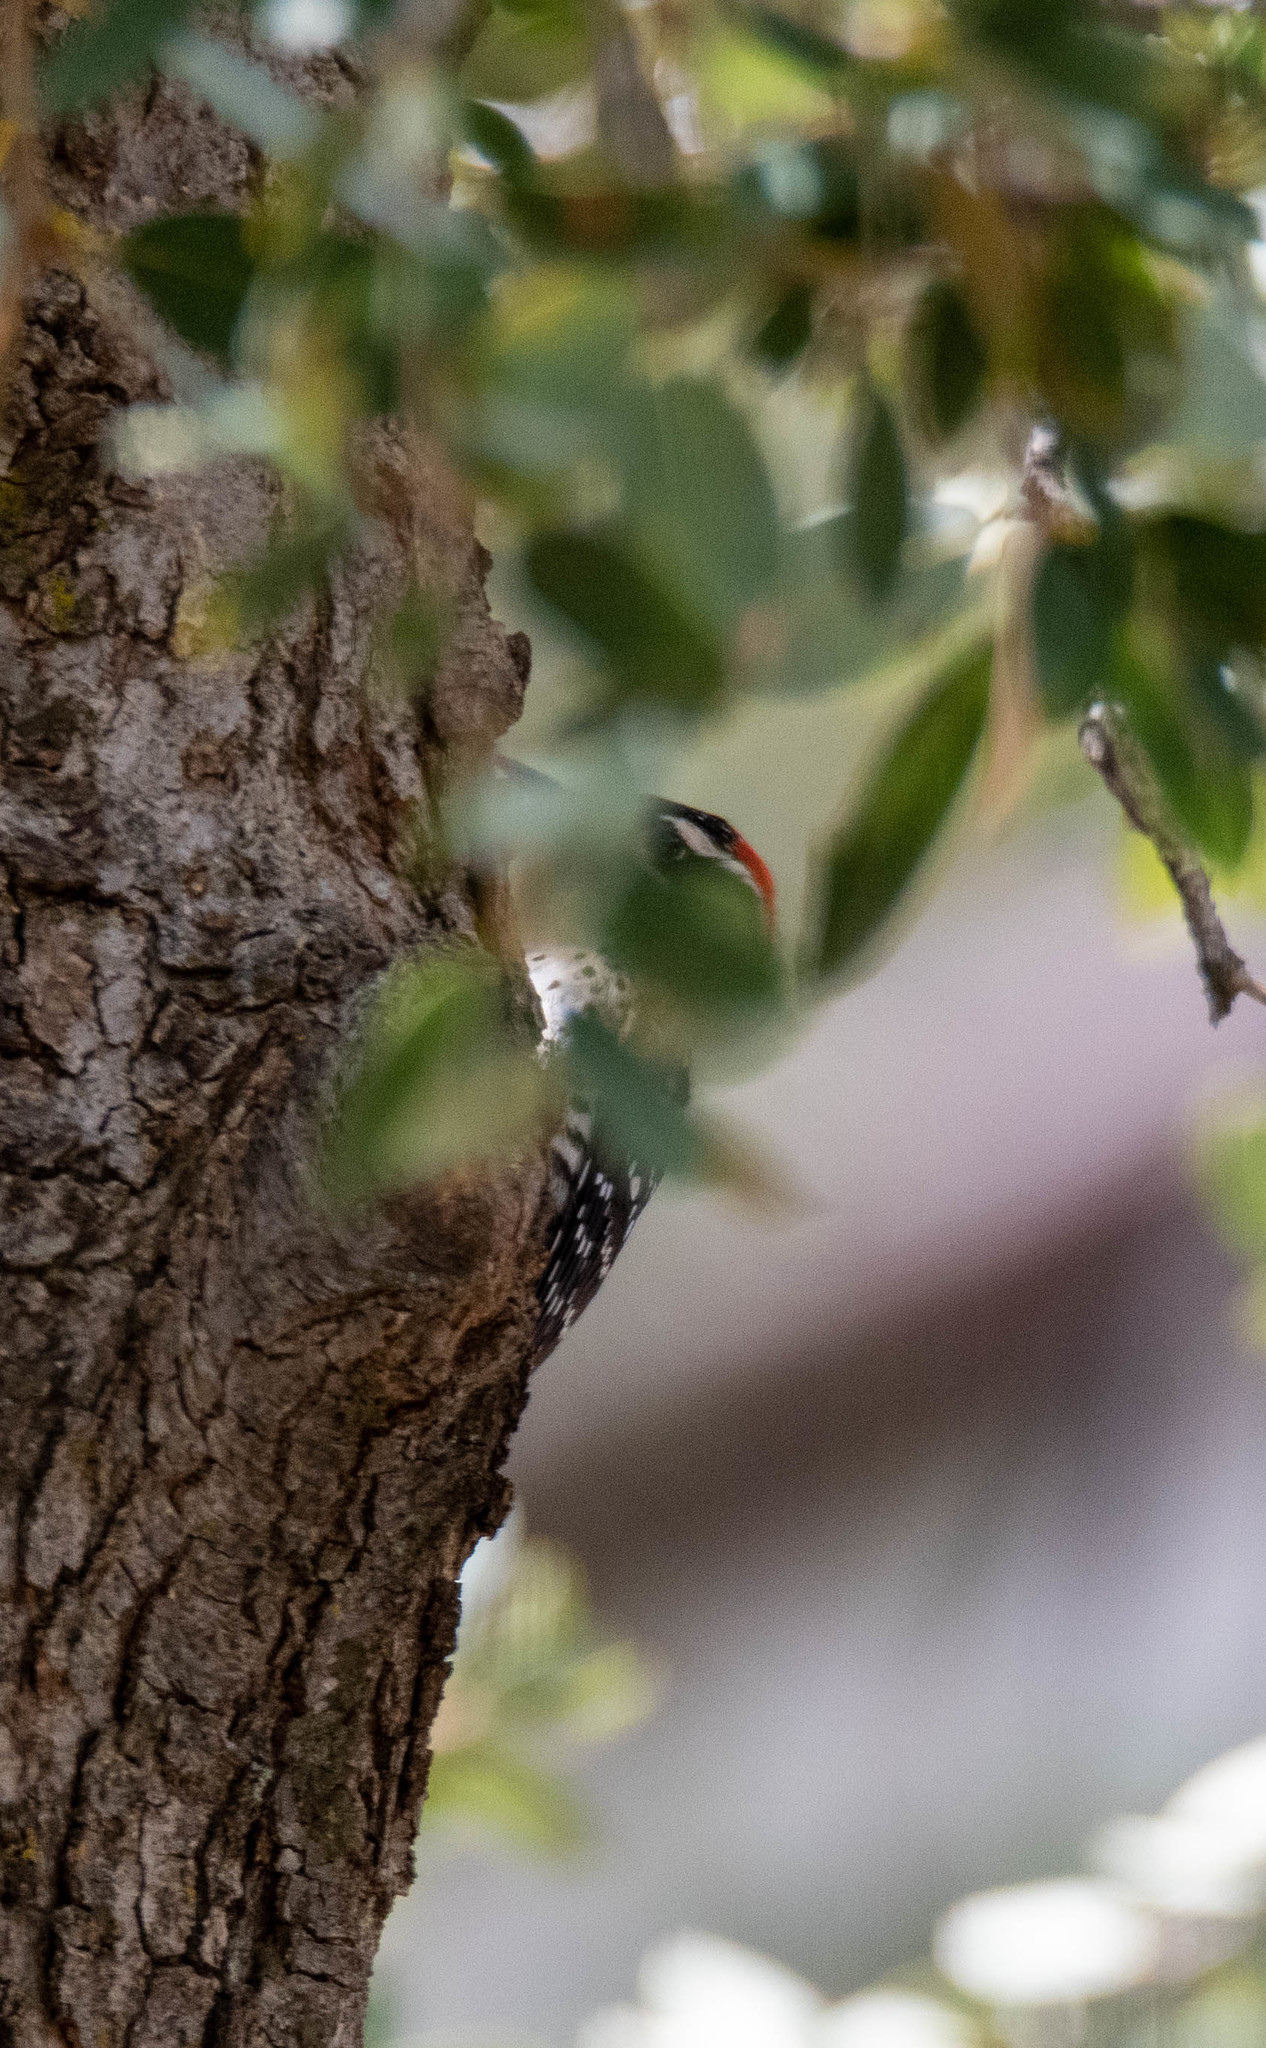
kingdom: Animalia
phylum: Chordata
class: Aves
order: Piciformes
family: Picidae
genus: Dryobates
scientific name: Dryobates nuttallii
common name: Nuttall's woodpecker
